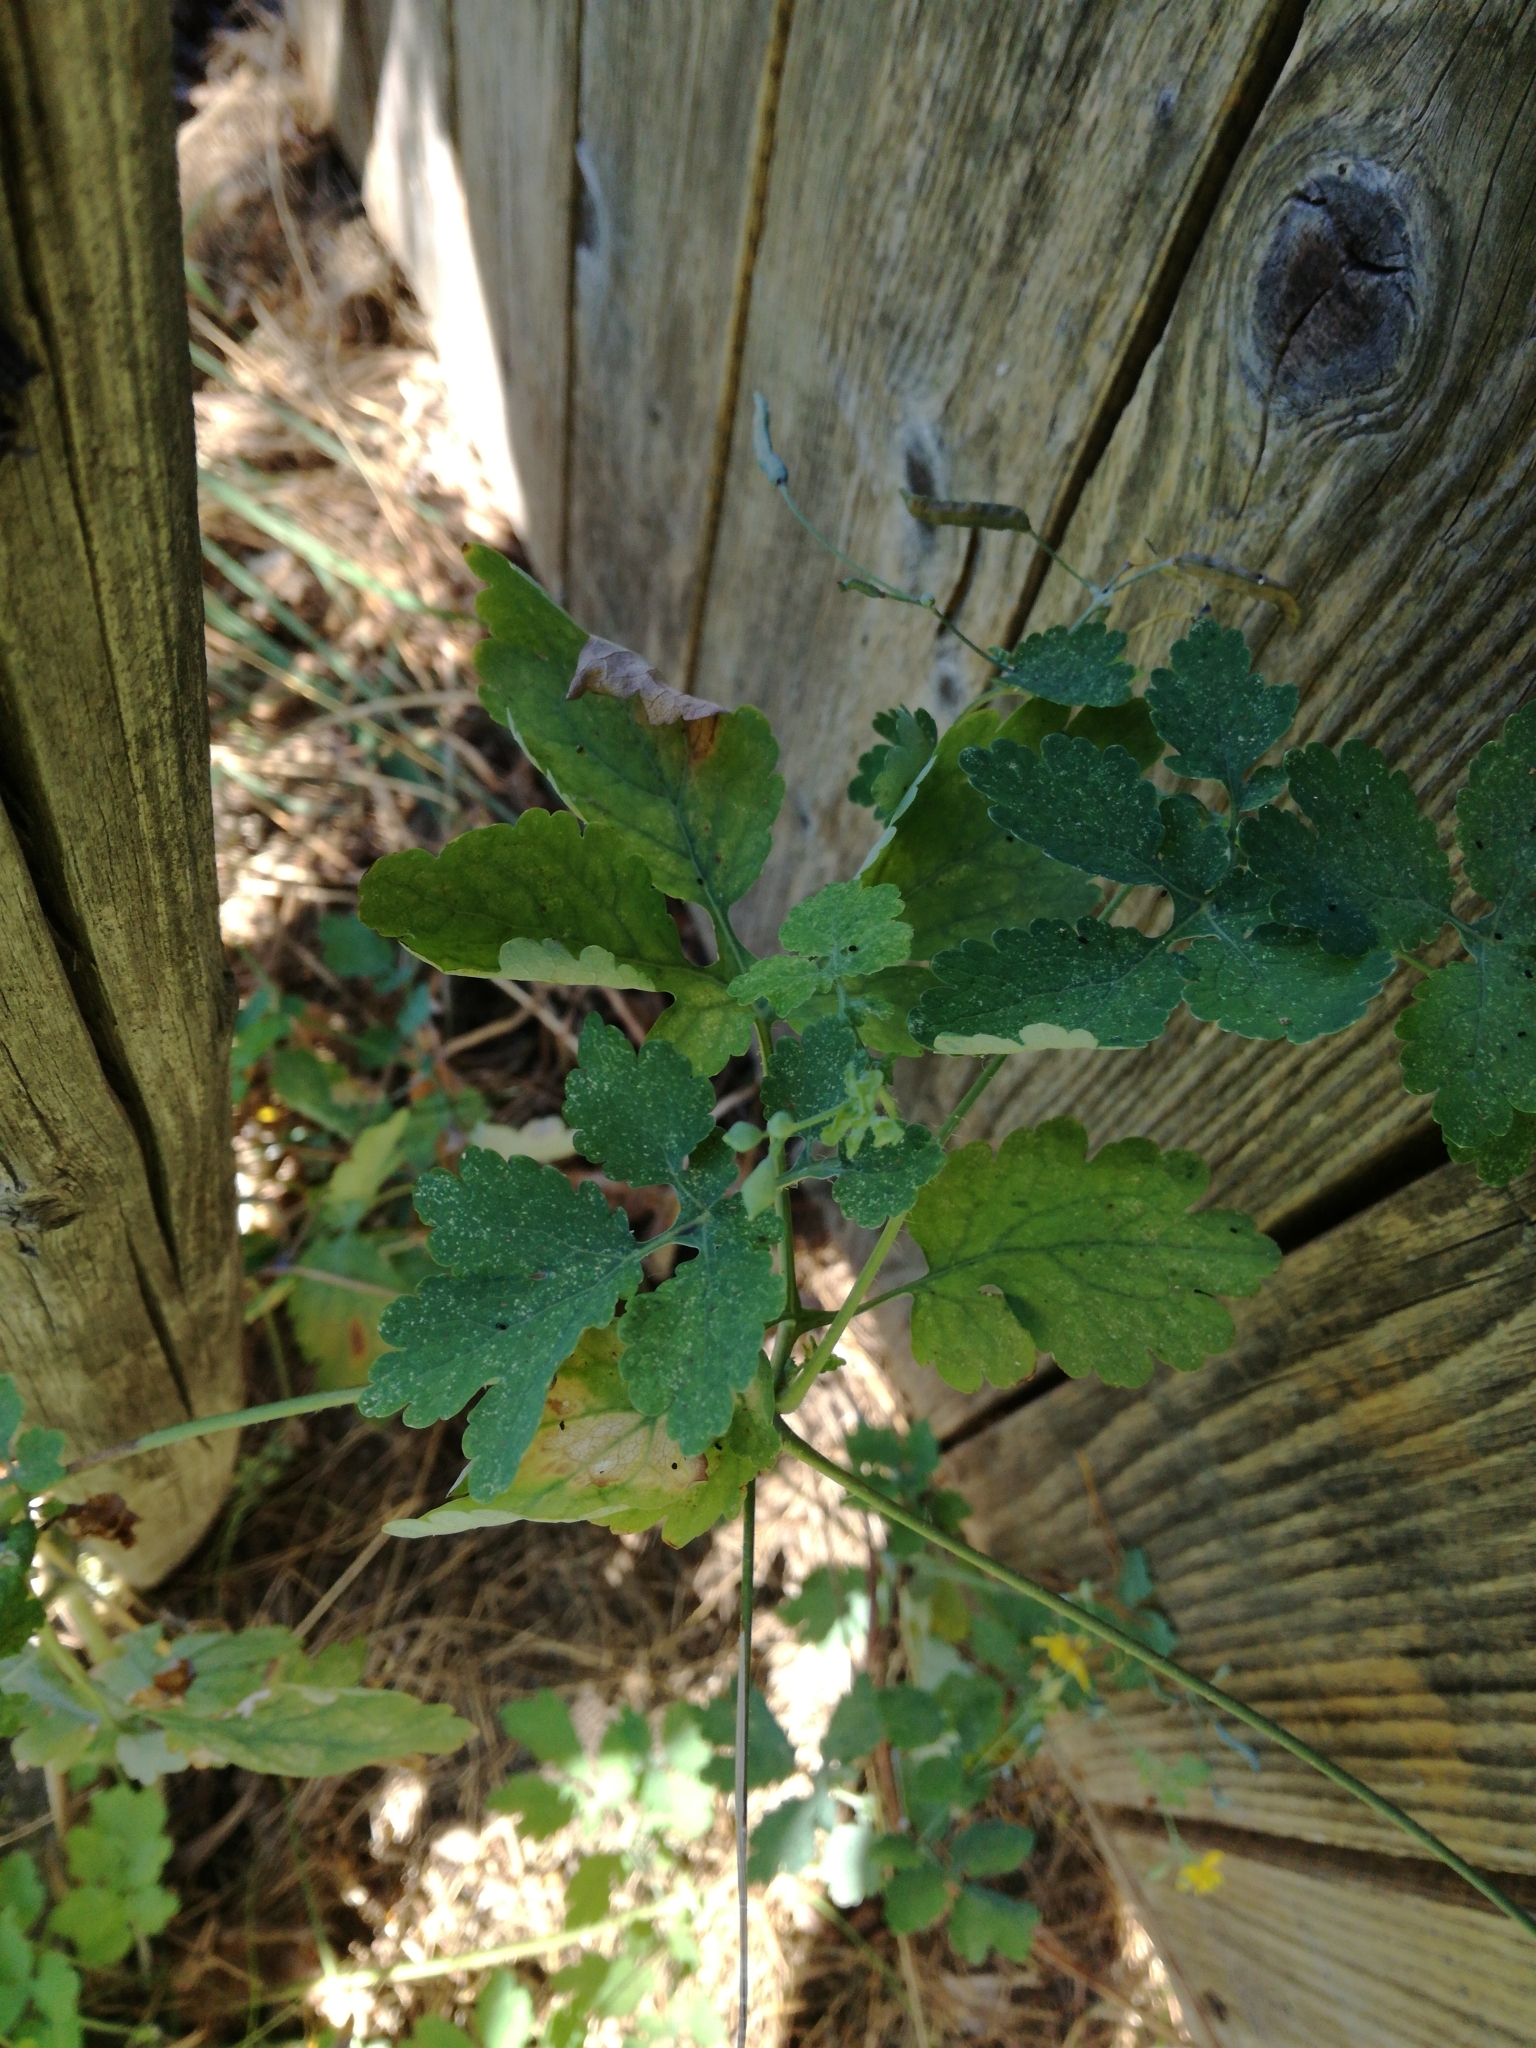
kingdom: Plantae
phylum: Tracheophyta
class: Magnoliopsida
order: Ranunculales
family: Papaveraceae
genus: Chelidonium
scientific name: Chelidonium majus
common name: Greater celandine
